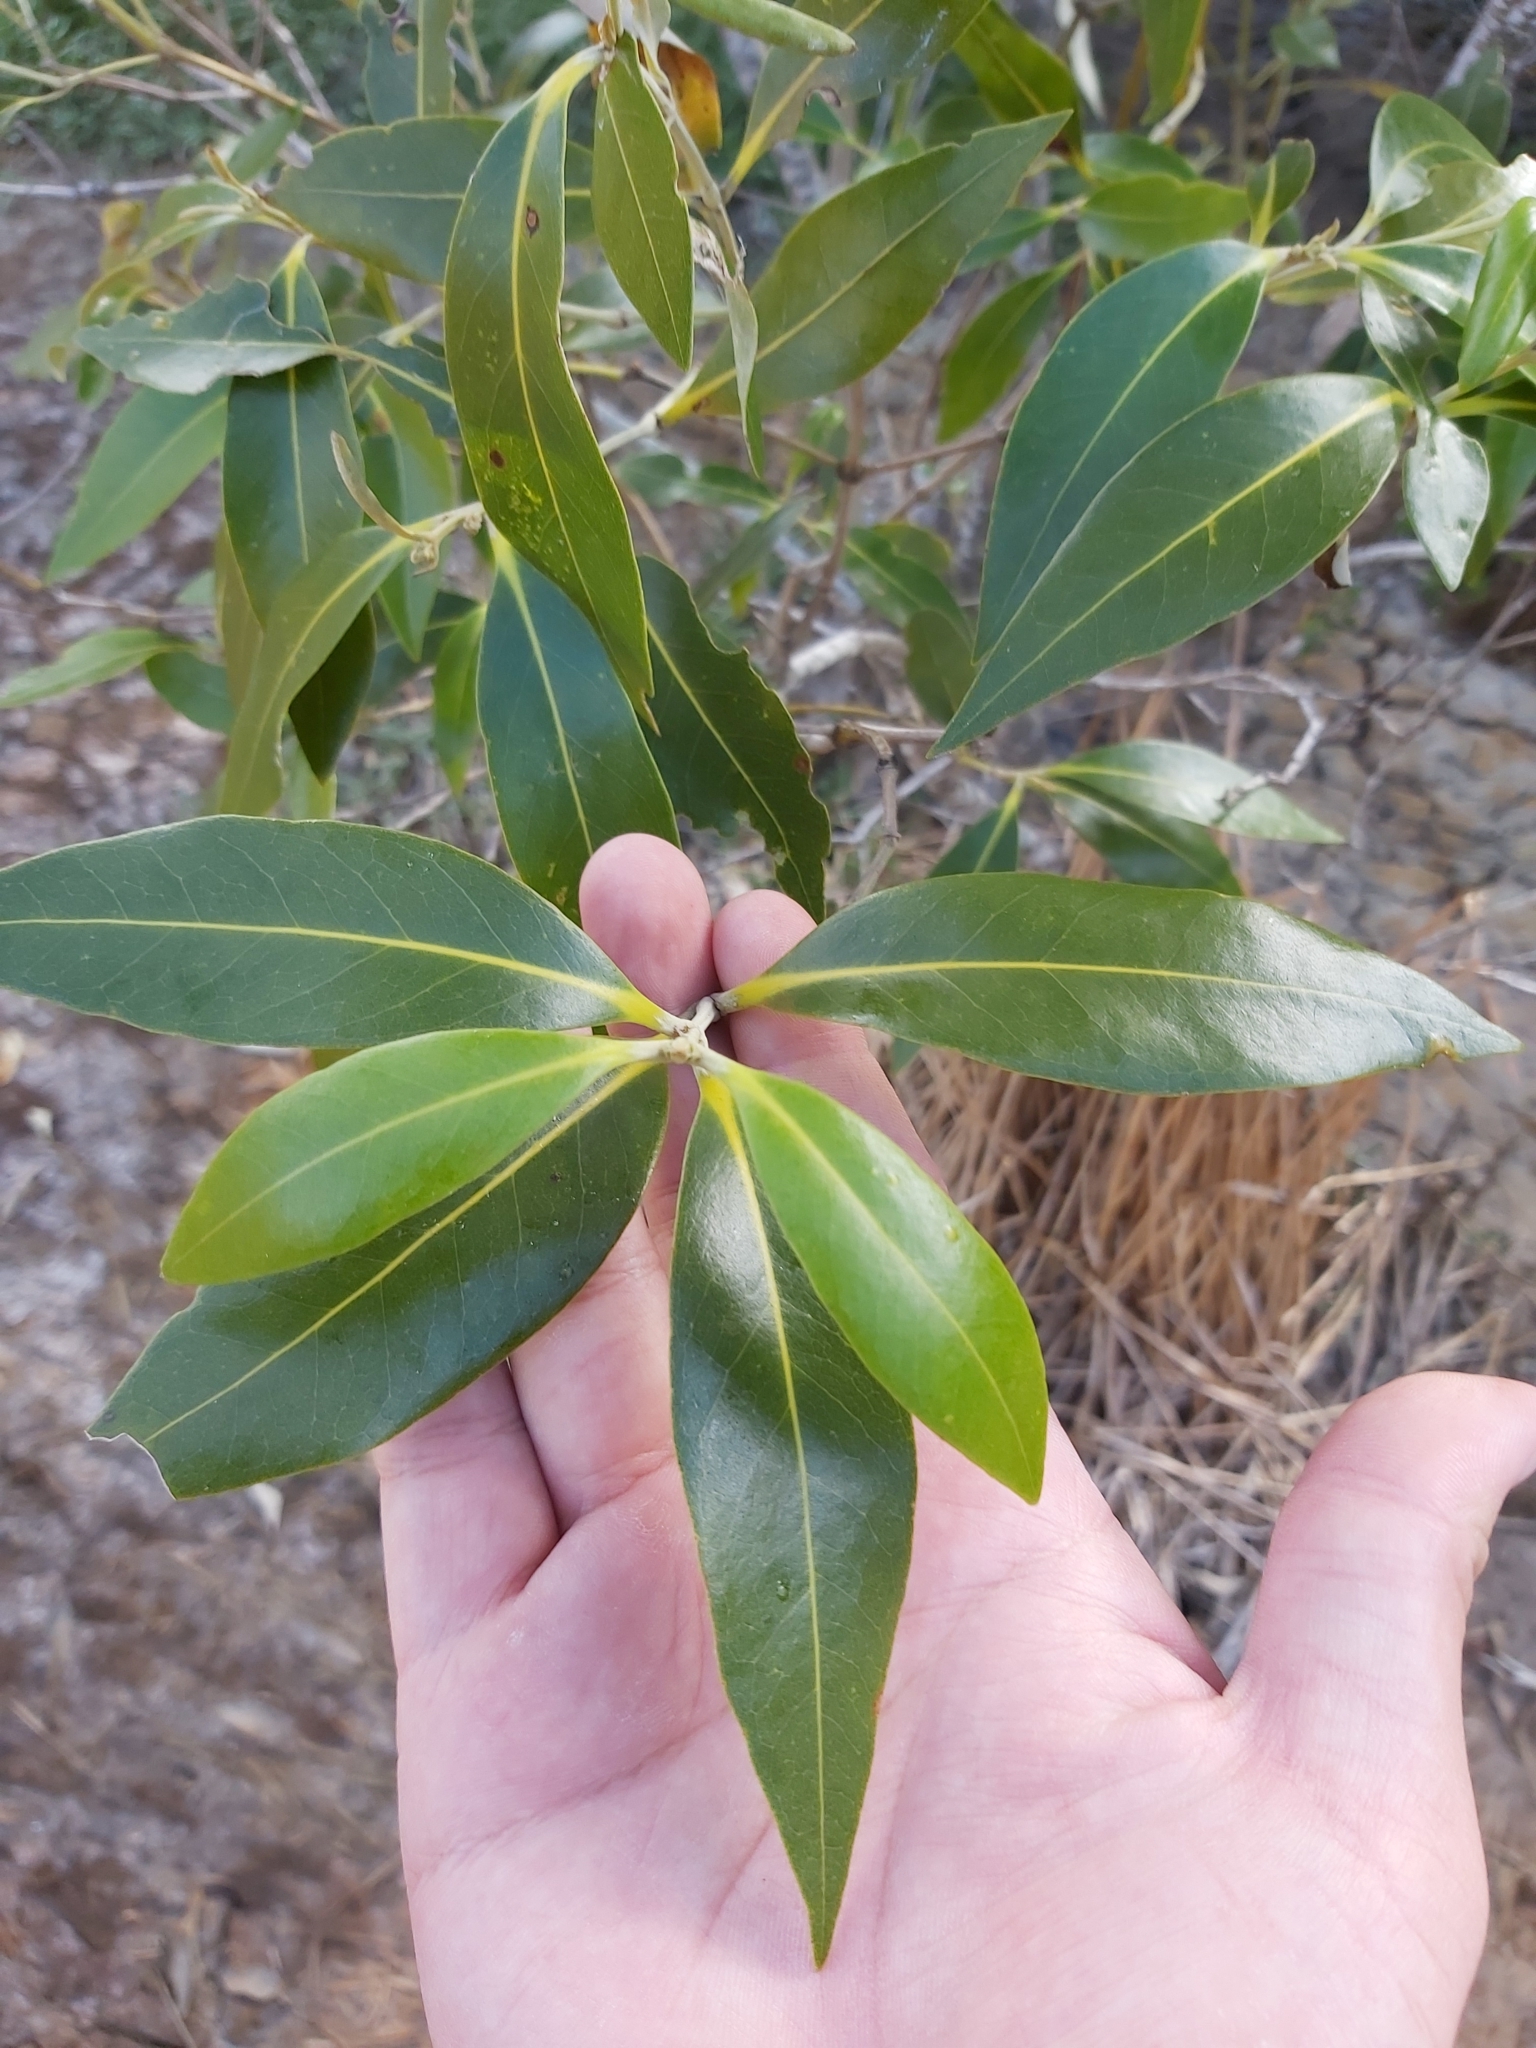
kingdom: Plantae
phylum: Tracheophyta
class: Magnoliopsida
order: Lamiales
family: Acanthaceae
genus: Avicennia
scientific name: Avicennia marina
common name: Gray mangrove
